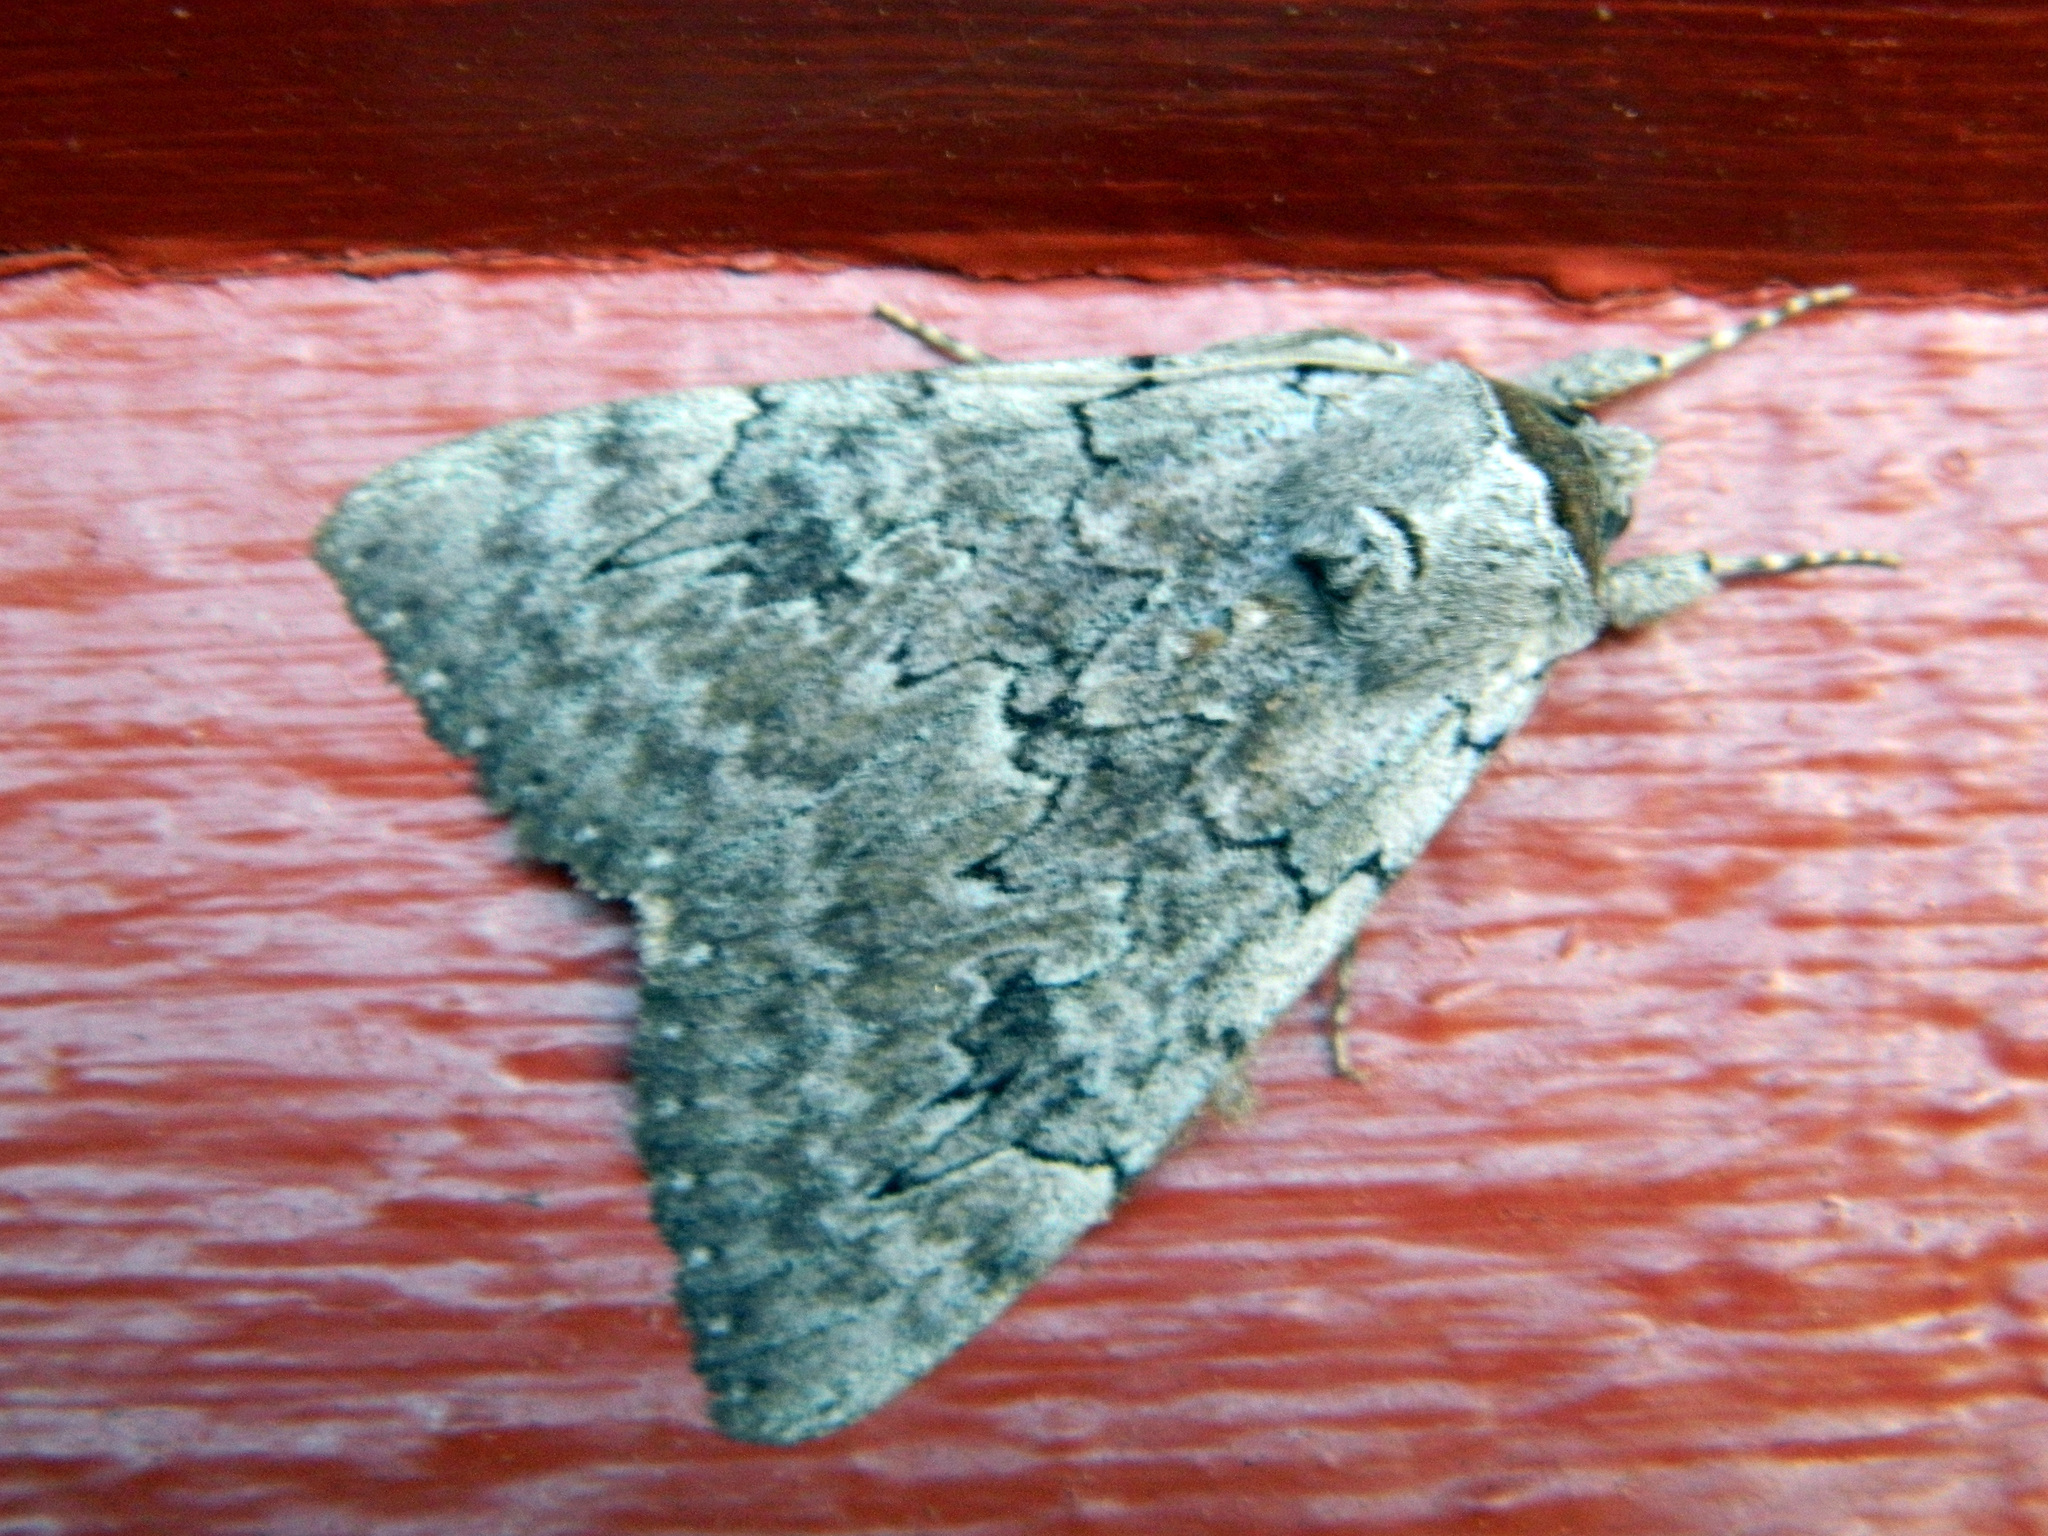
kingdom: Animalia
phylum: Arthropoda
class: Insecta
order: Lepidoptera
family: Erebidae
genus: Catocala
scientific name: Catocala concumbens
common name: Pink underwing
